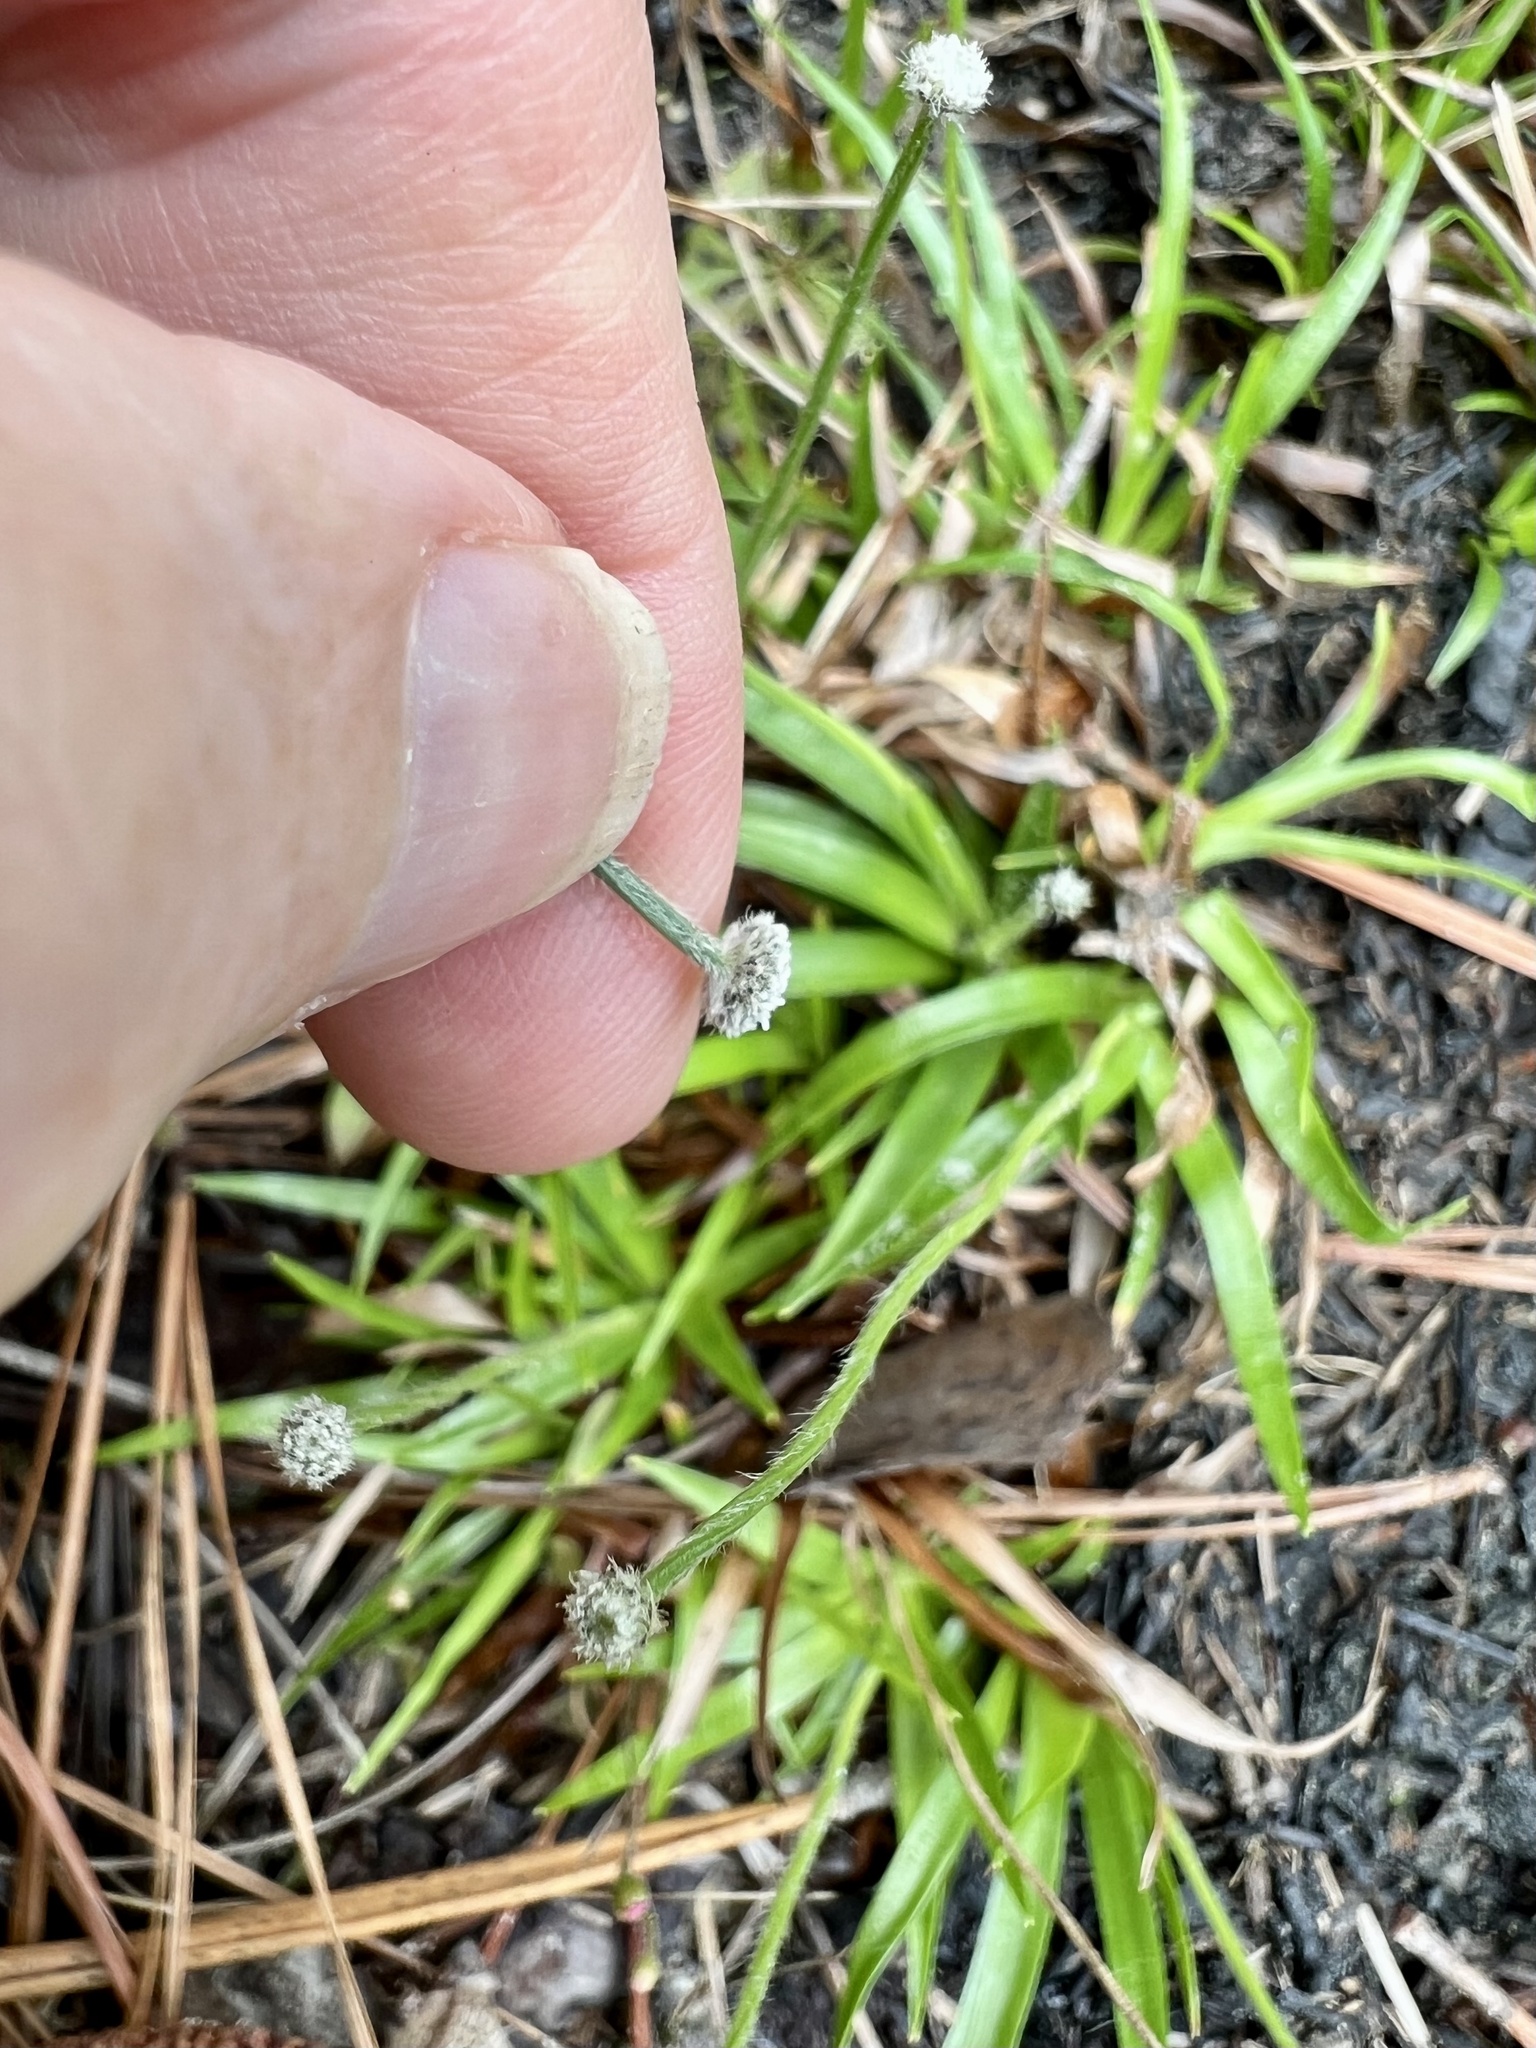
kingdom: Plantae
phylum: Tracheophyta
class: Liliopsida
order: Poales
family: Eriocaulaceae
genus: Paepalanthus
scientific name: Paepalanthus anceps
